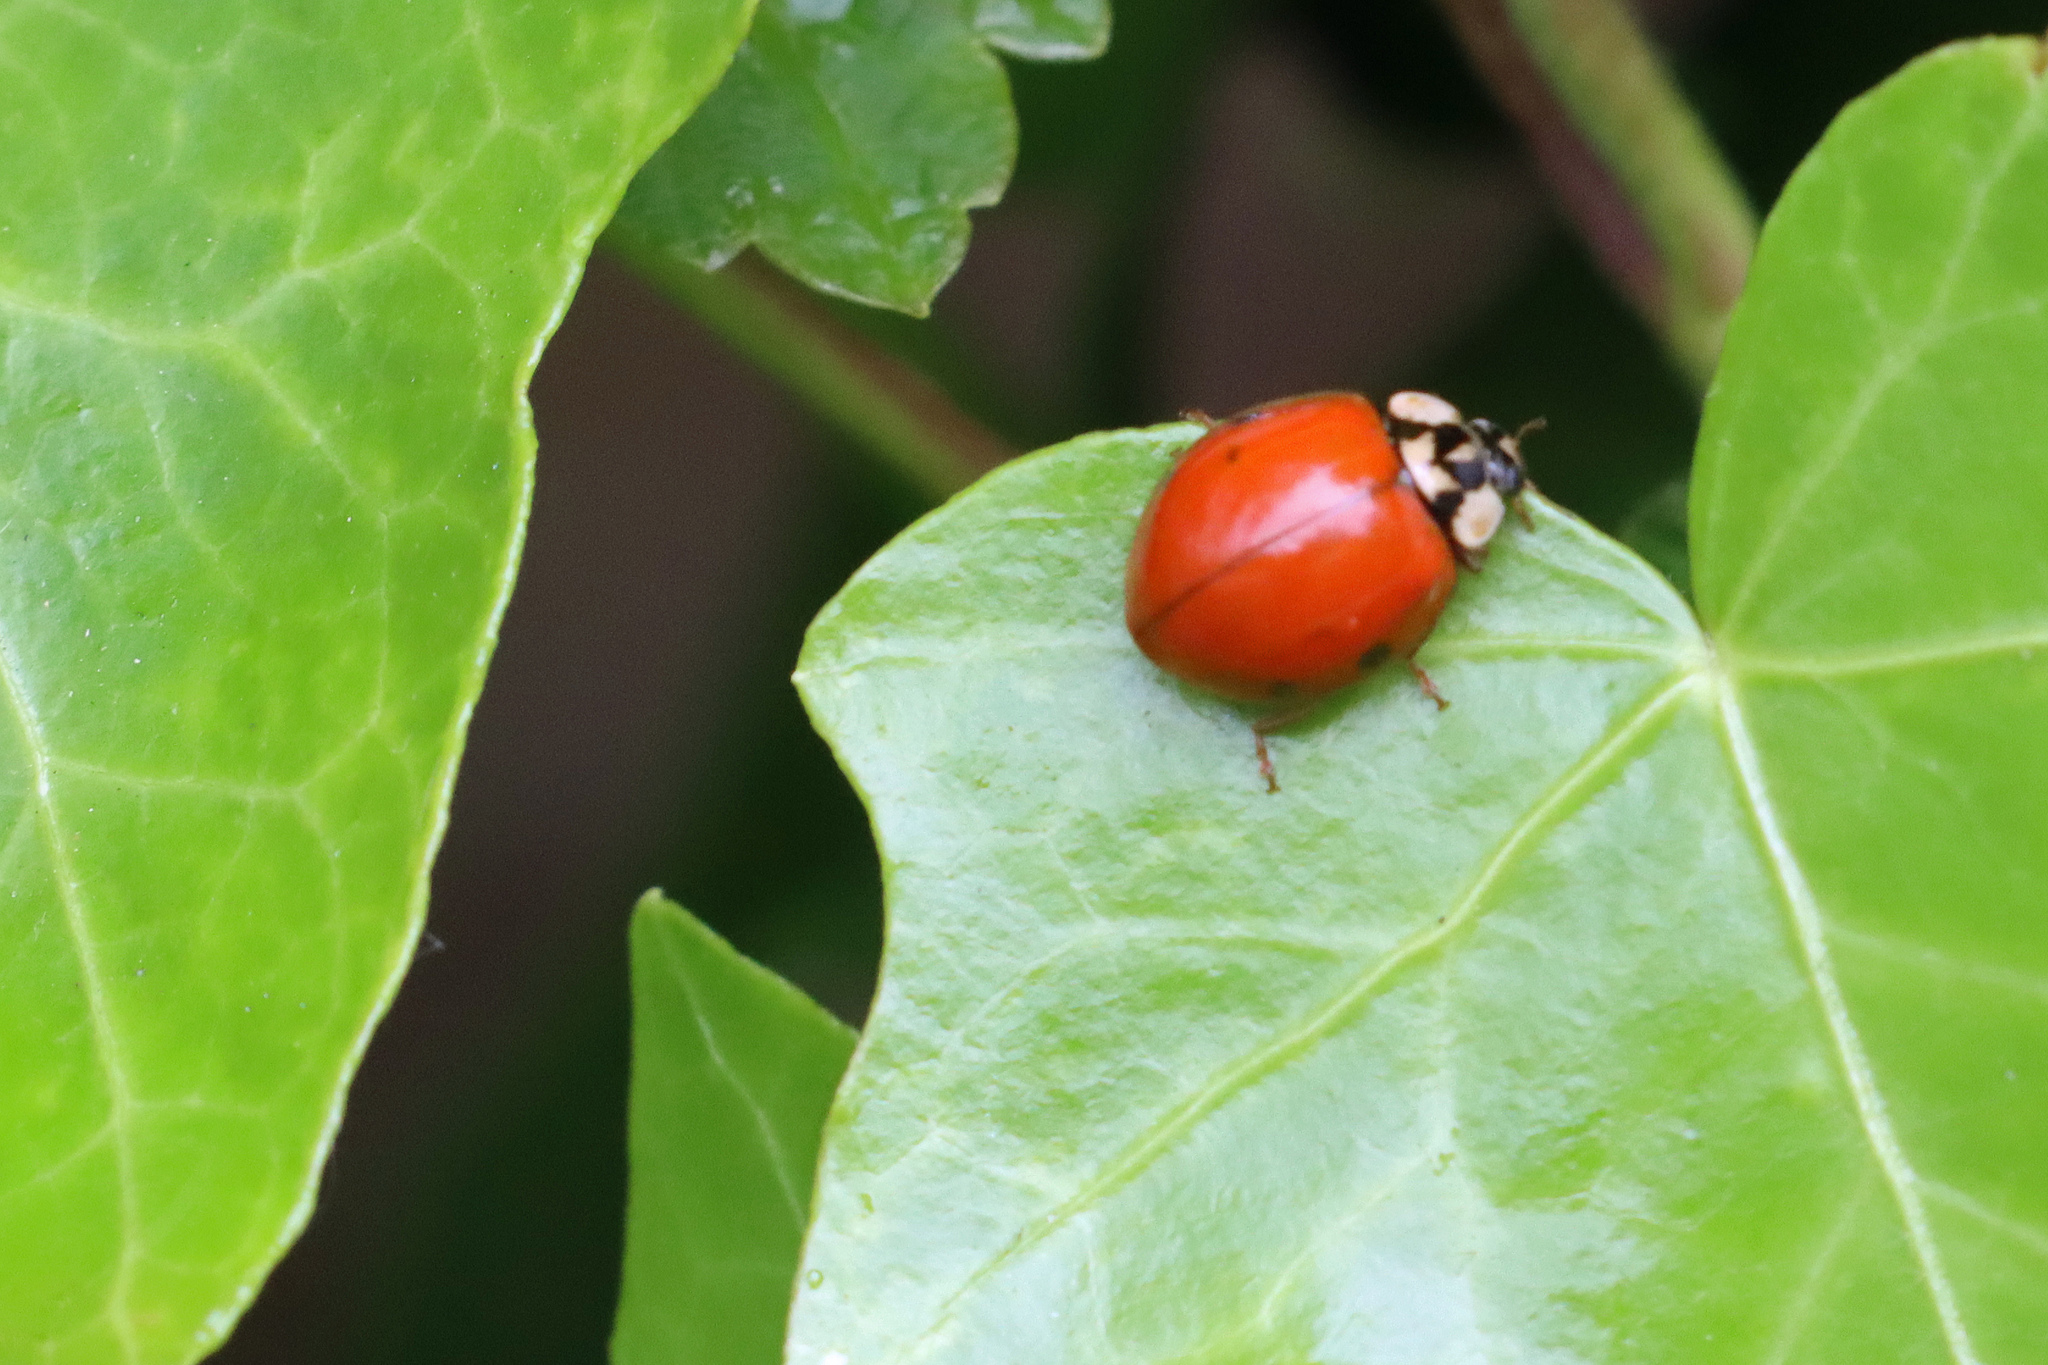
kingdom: Animalia
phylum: Arthropoda
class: Insecta
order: Coleoptera
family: Coccinellidae
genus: Harmonia
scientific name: Harmonia axyridis
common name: Harlequin ladybird
